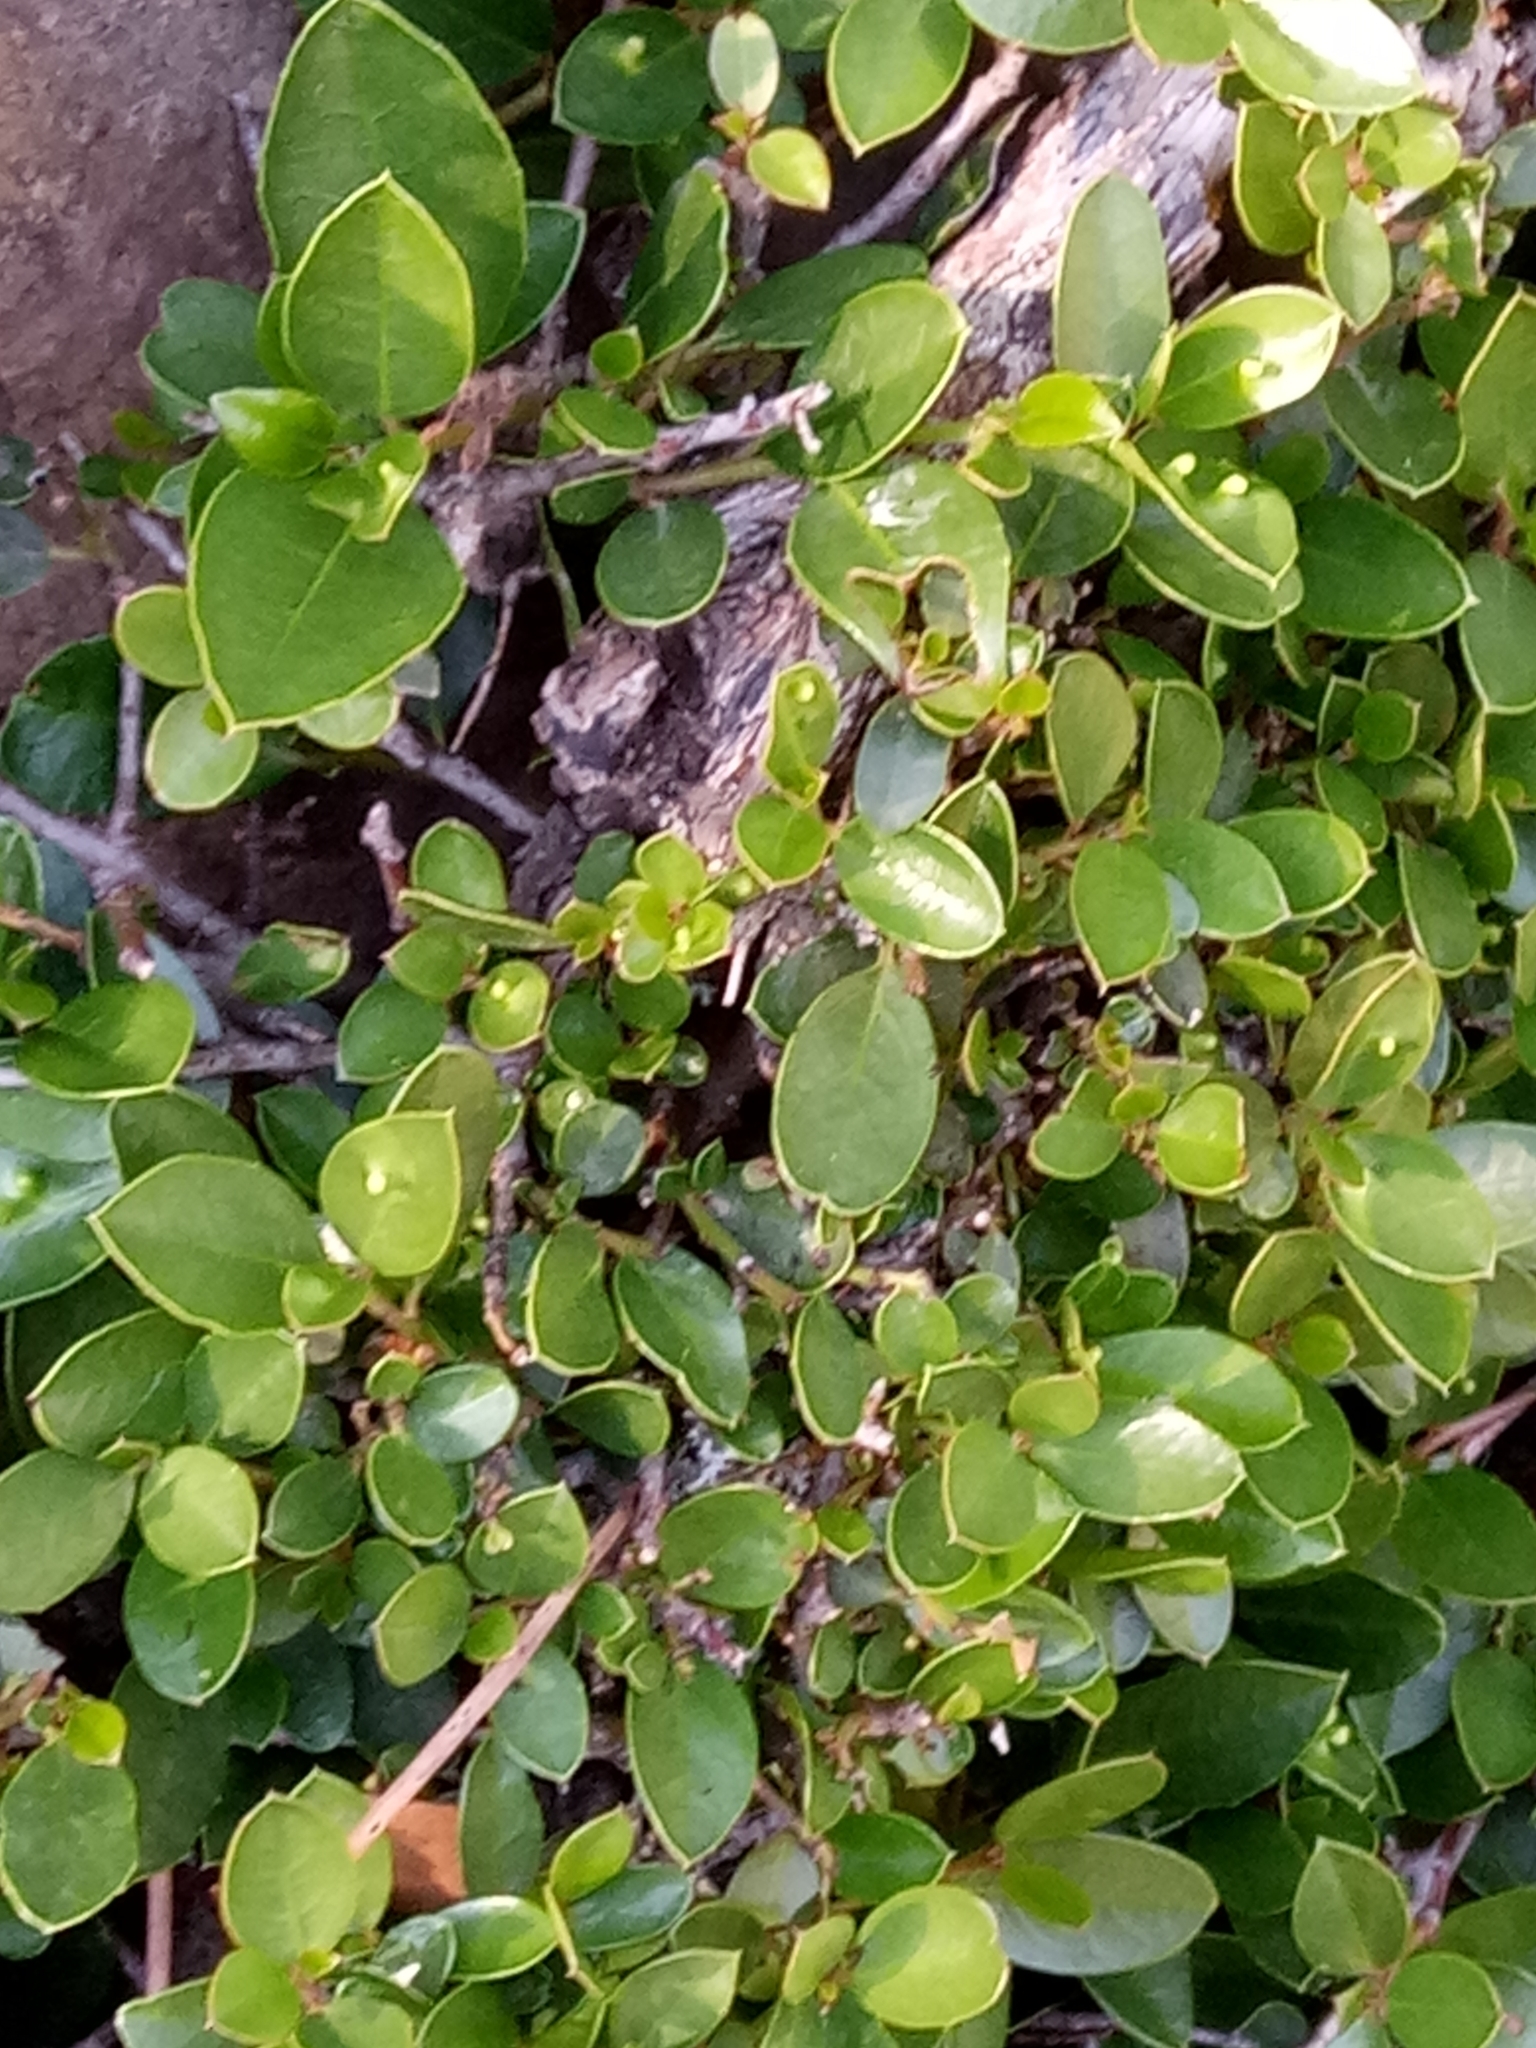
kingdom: Plantae
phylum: Tracheophyta
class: Magnoliopsida
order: Rosales
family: Rhamnaceae
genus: Rhamnus
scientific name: Rhamnus myrtifolia
